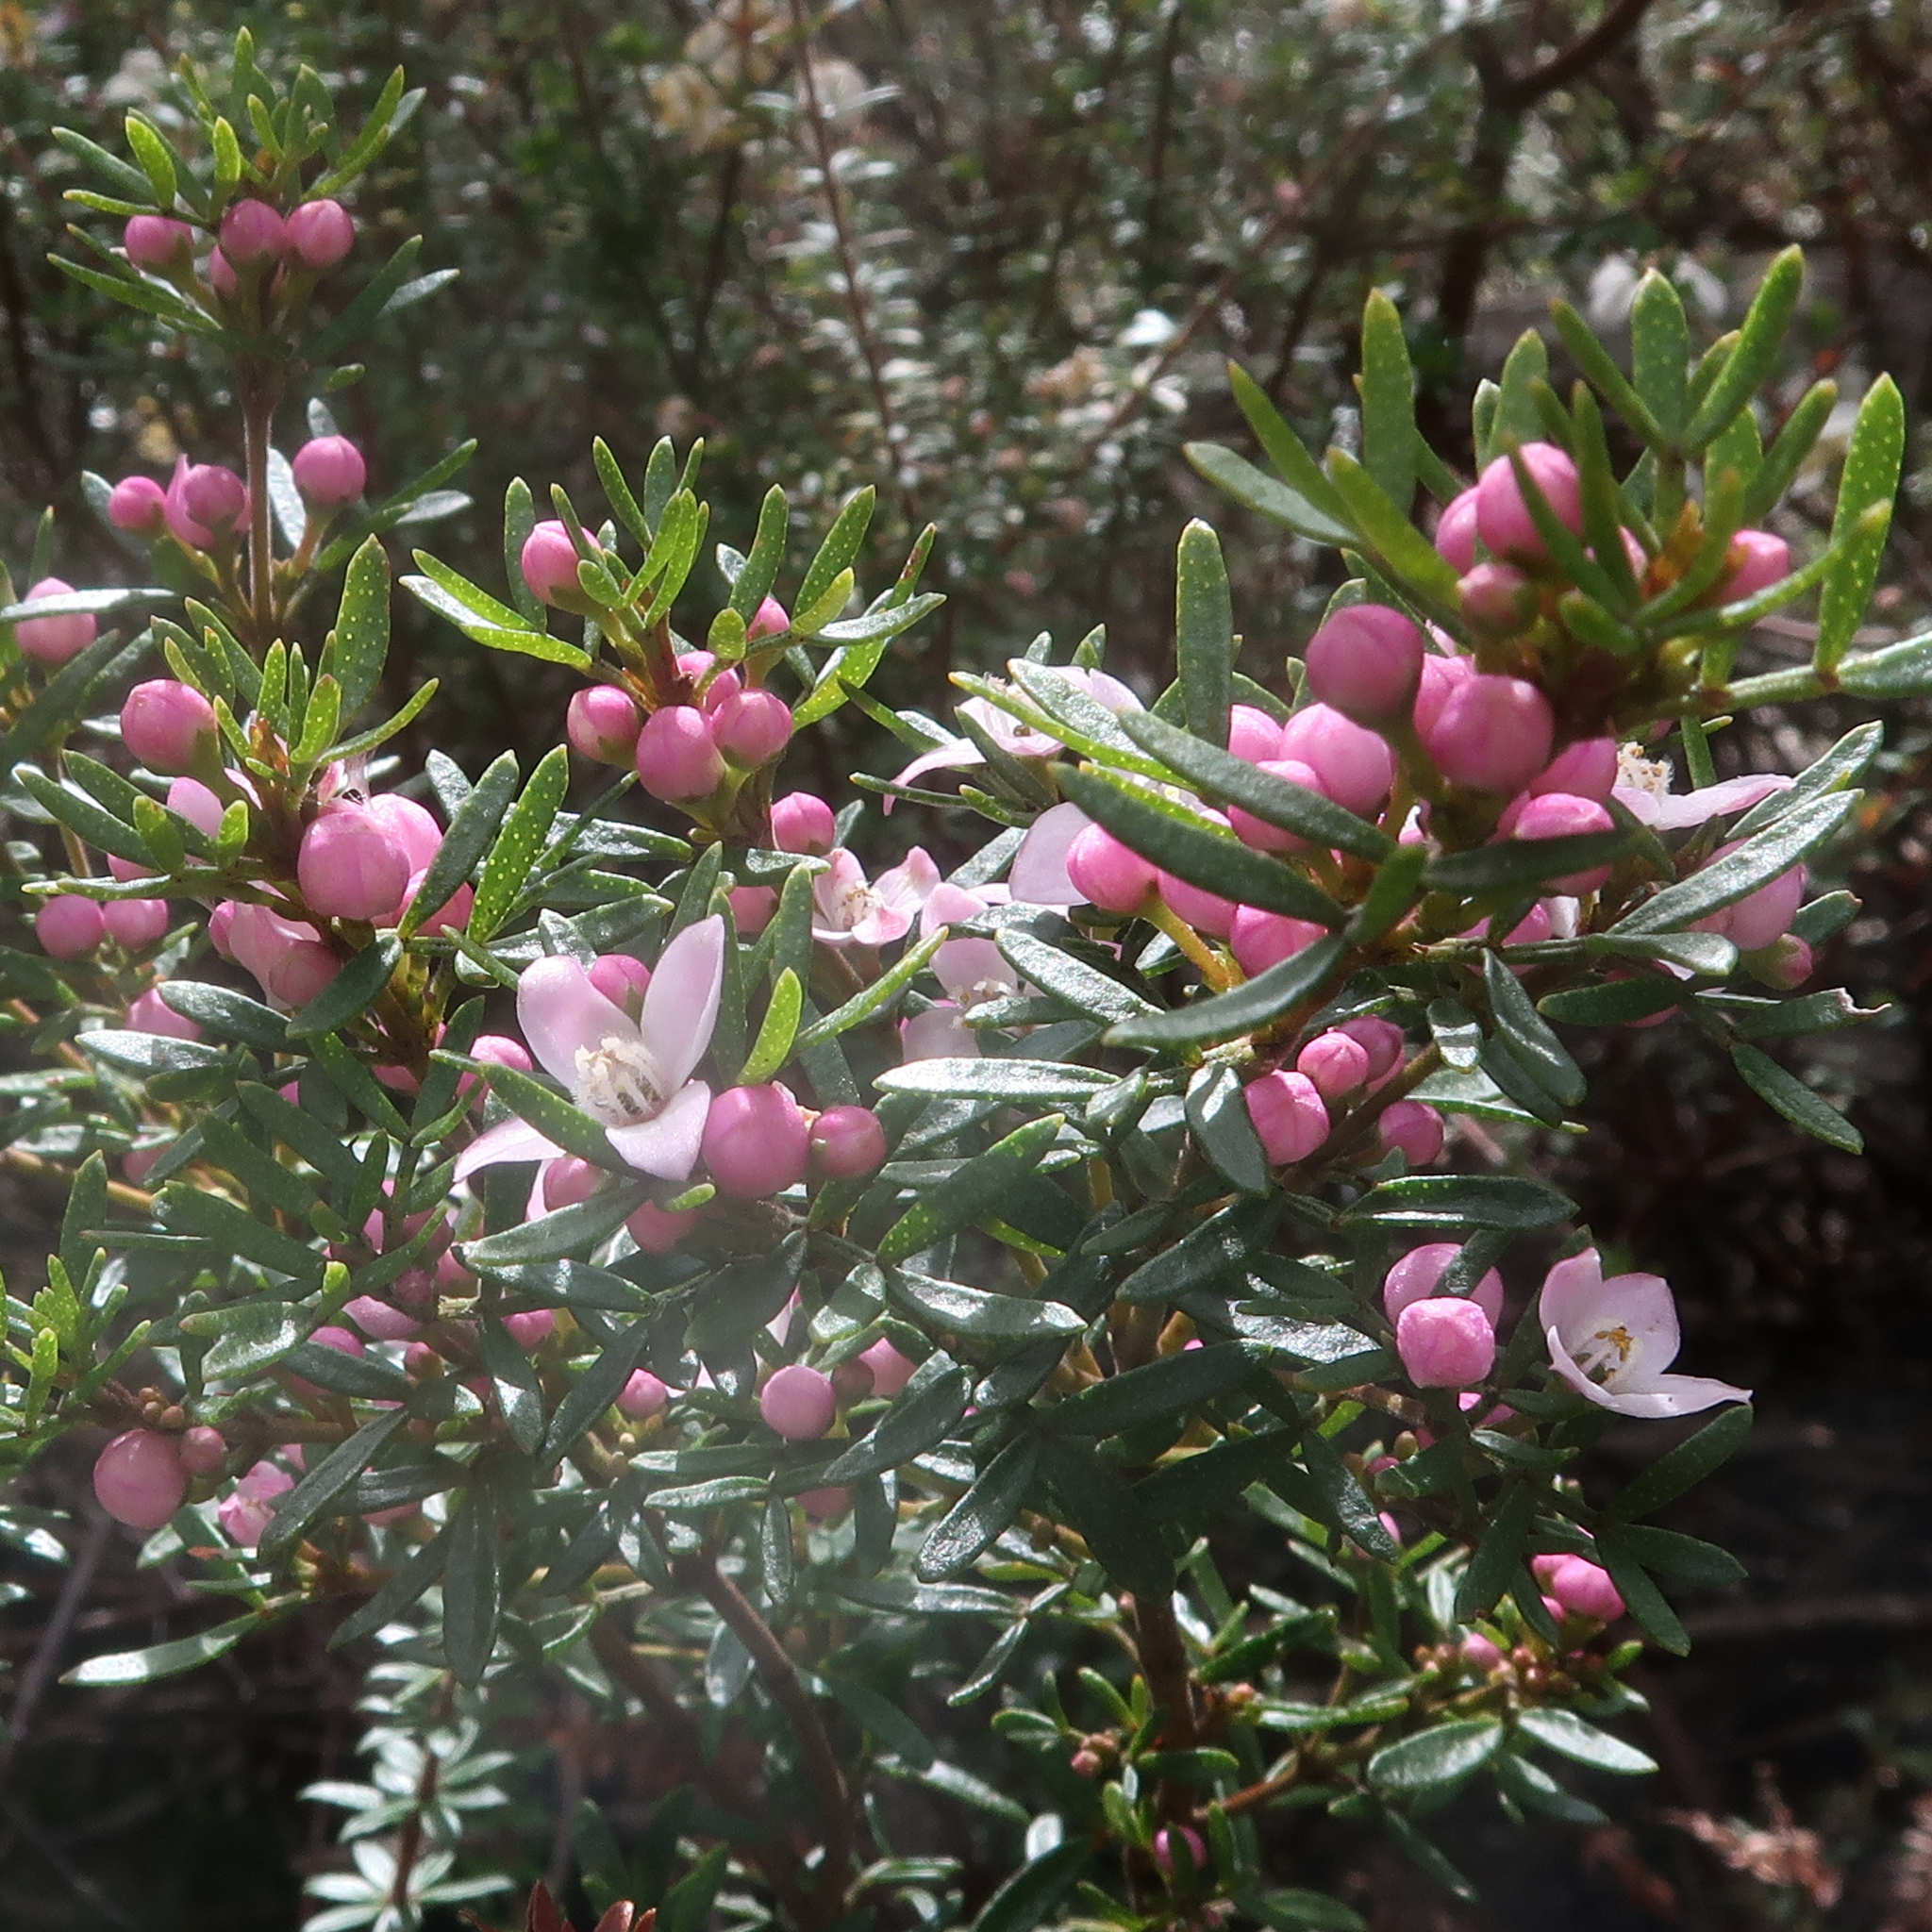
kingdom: Plantae
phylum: Tracheophyta
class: Magnoliopsida
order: Sapindales
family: Rutaceae
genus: Boronia
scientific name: Boronia citriodora
